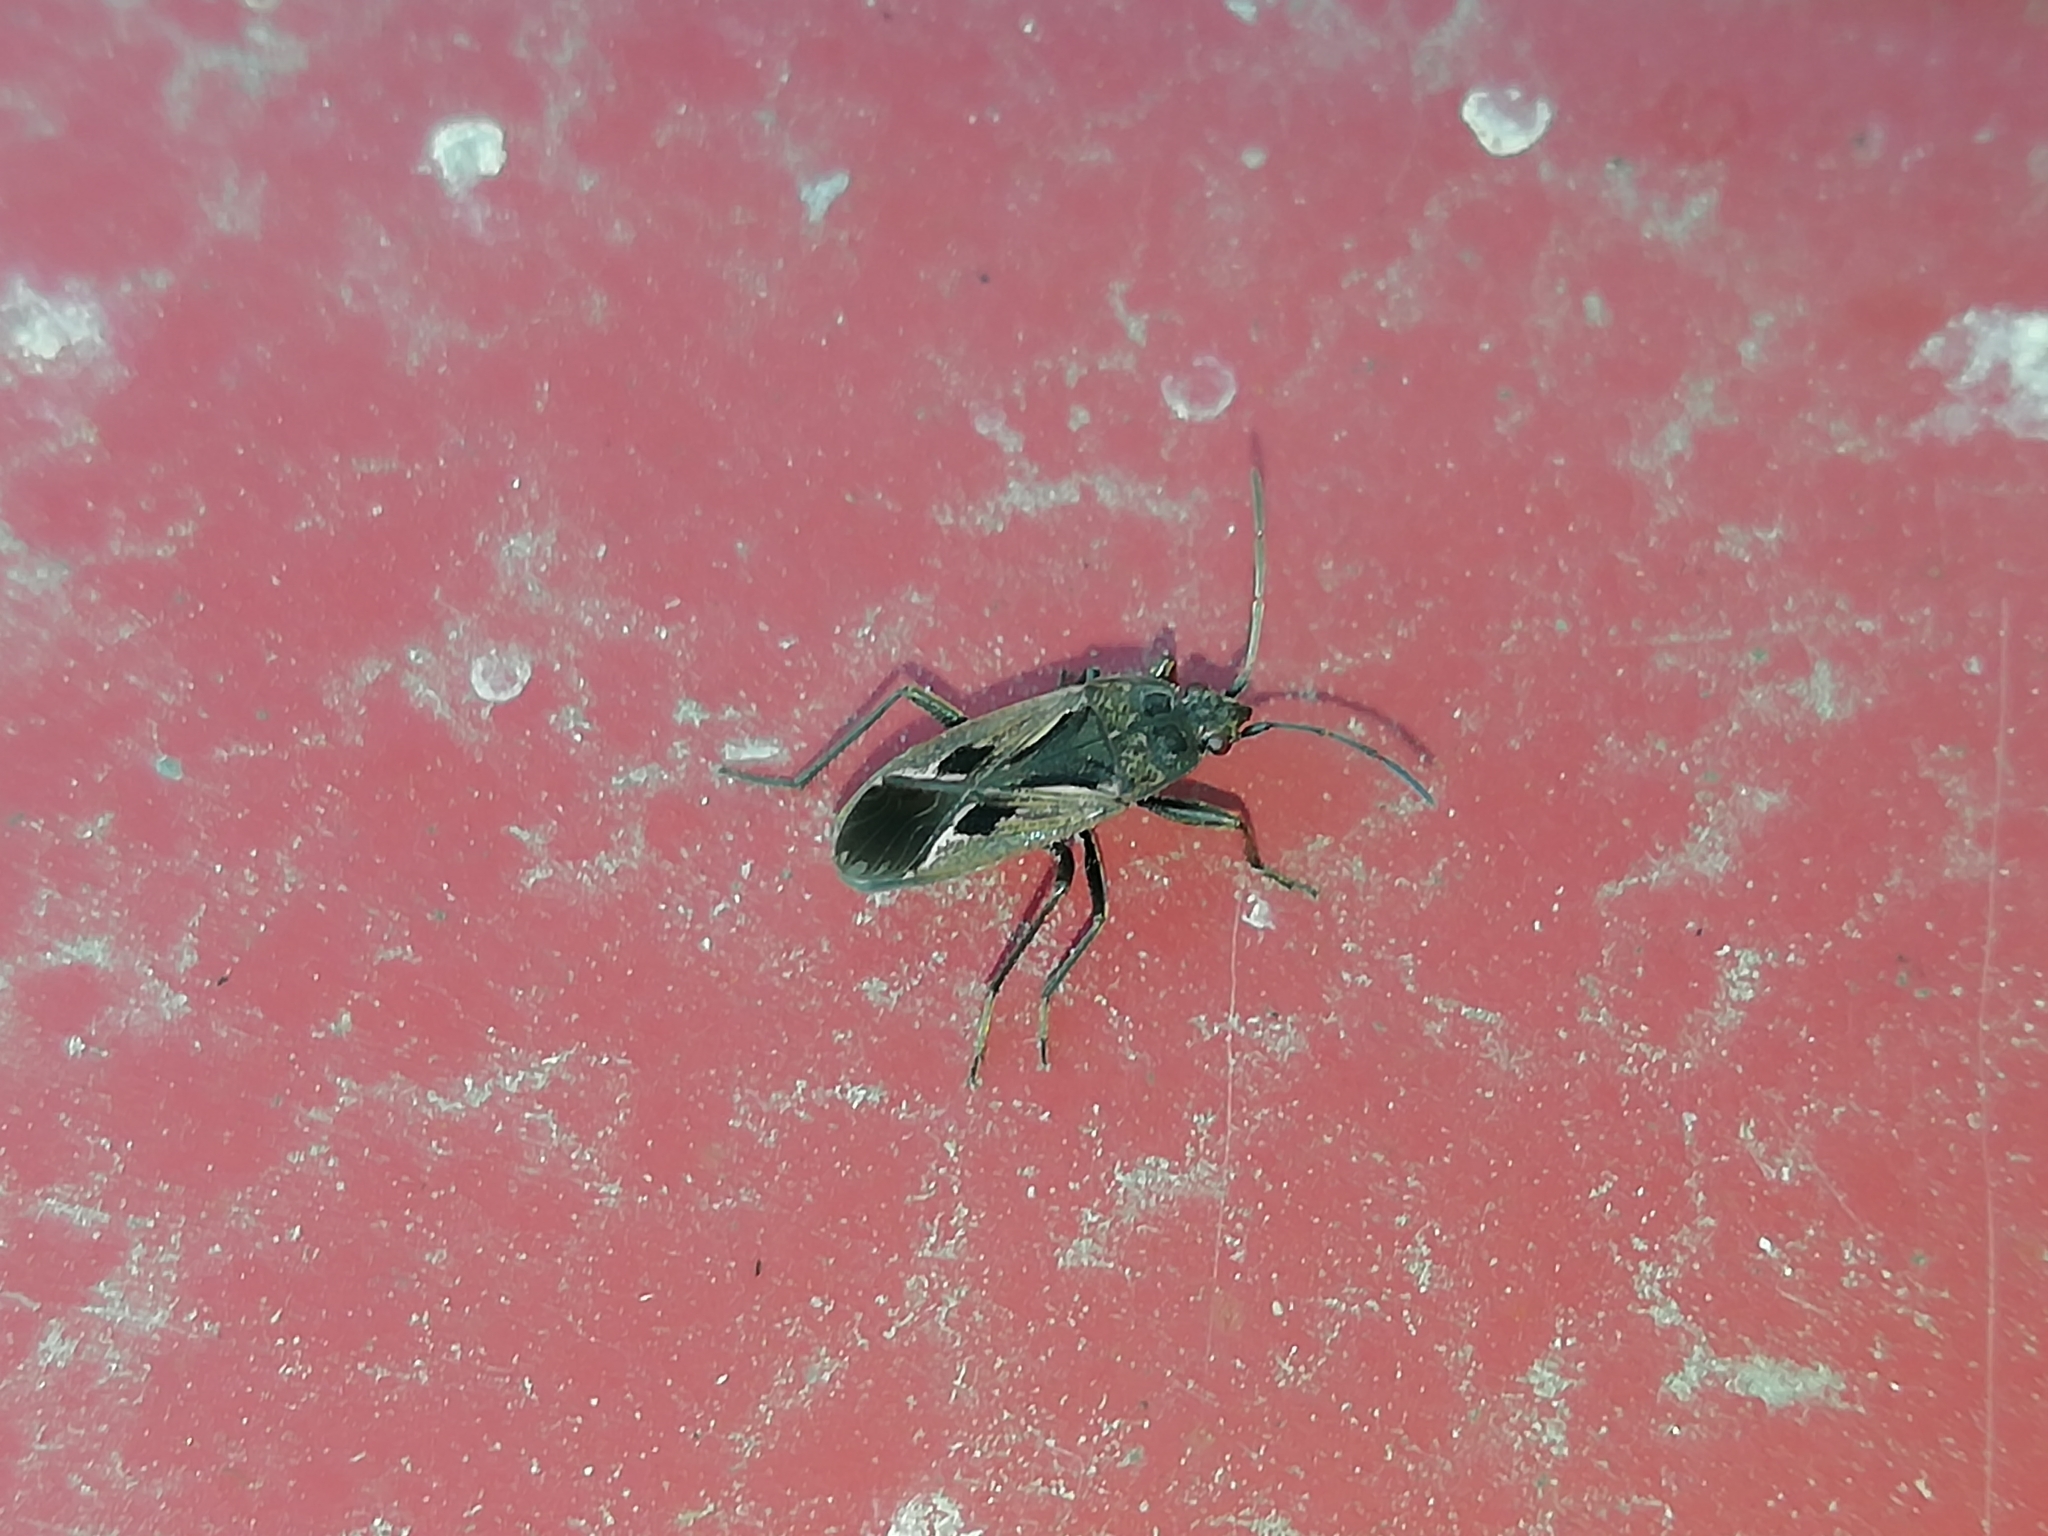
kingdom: Animalia
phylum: Arthropoda
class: Insecta
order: Hemiptera
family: Rhyparochromidae
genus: Rhyparochromus
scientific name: Rhyparochromus pini
